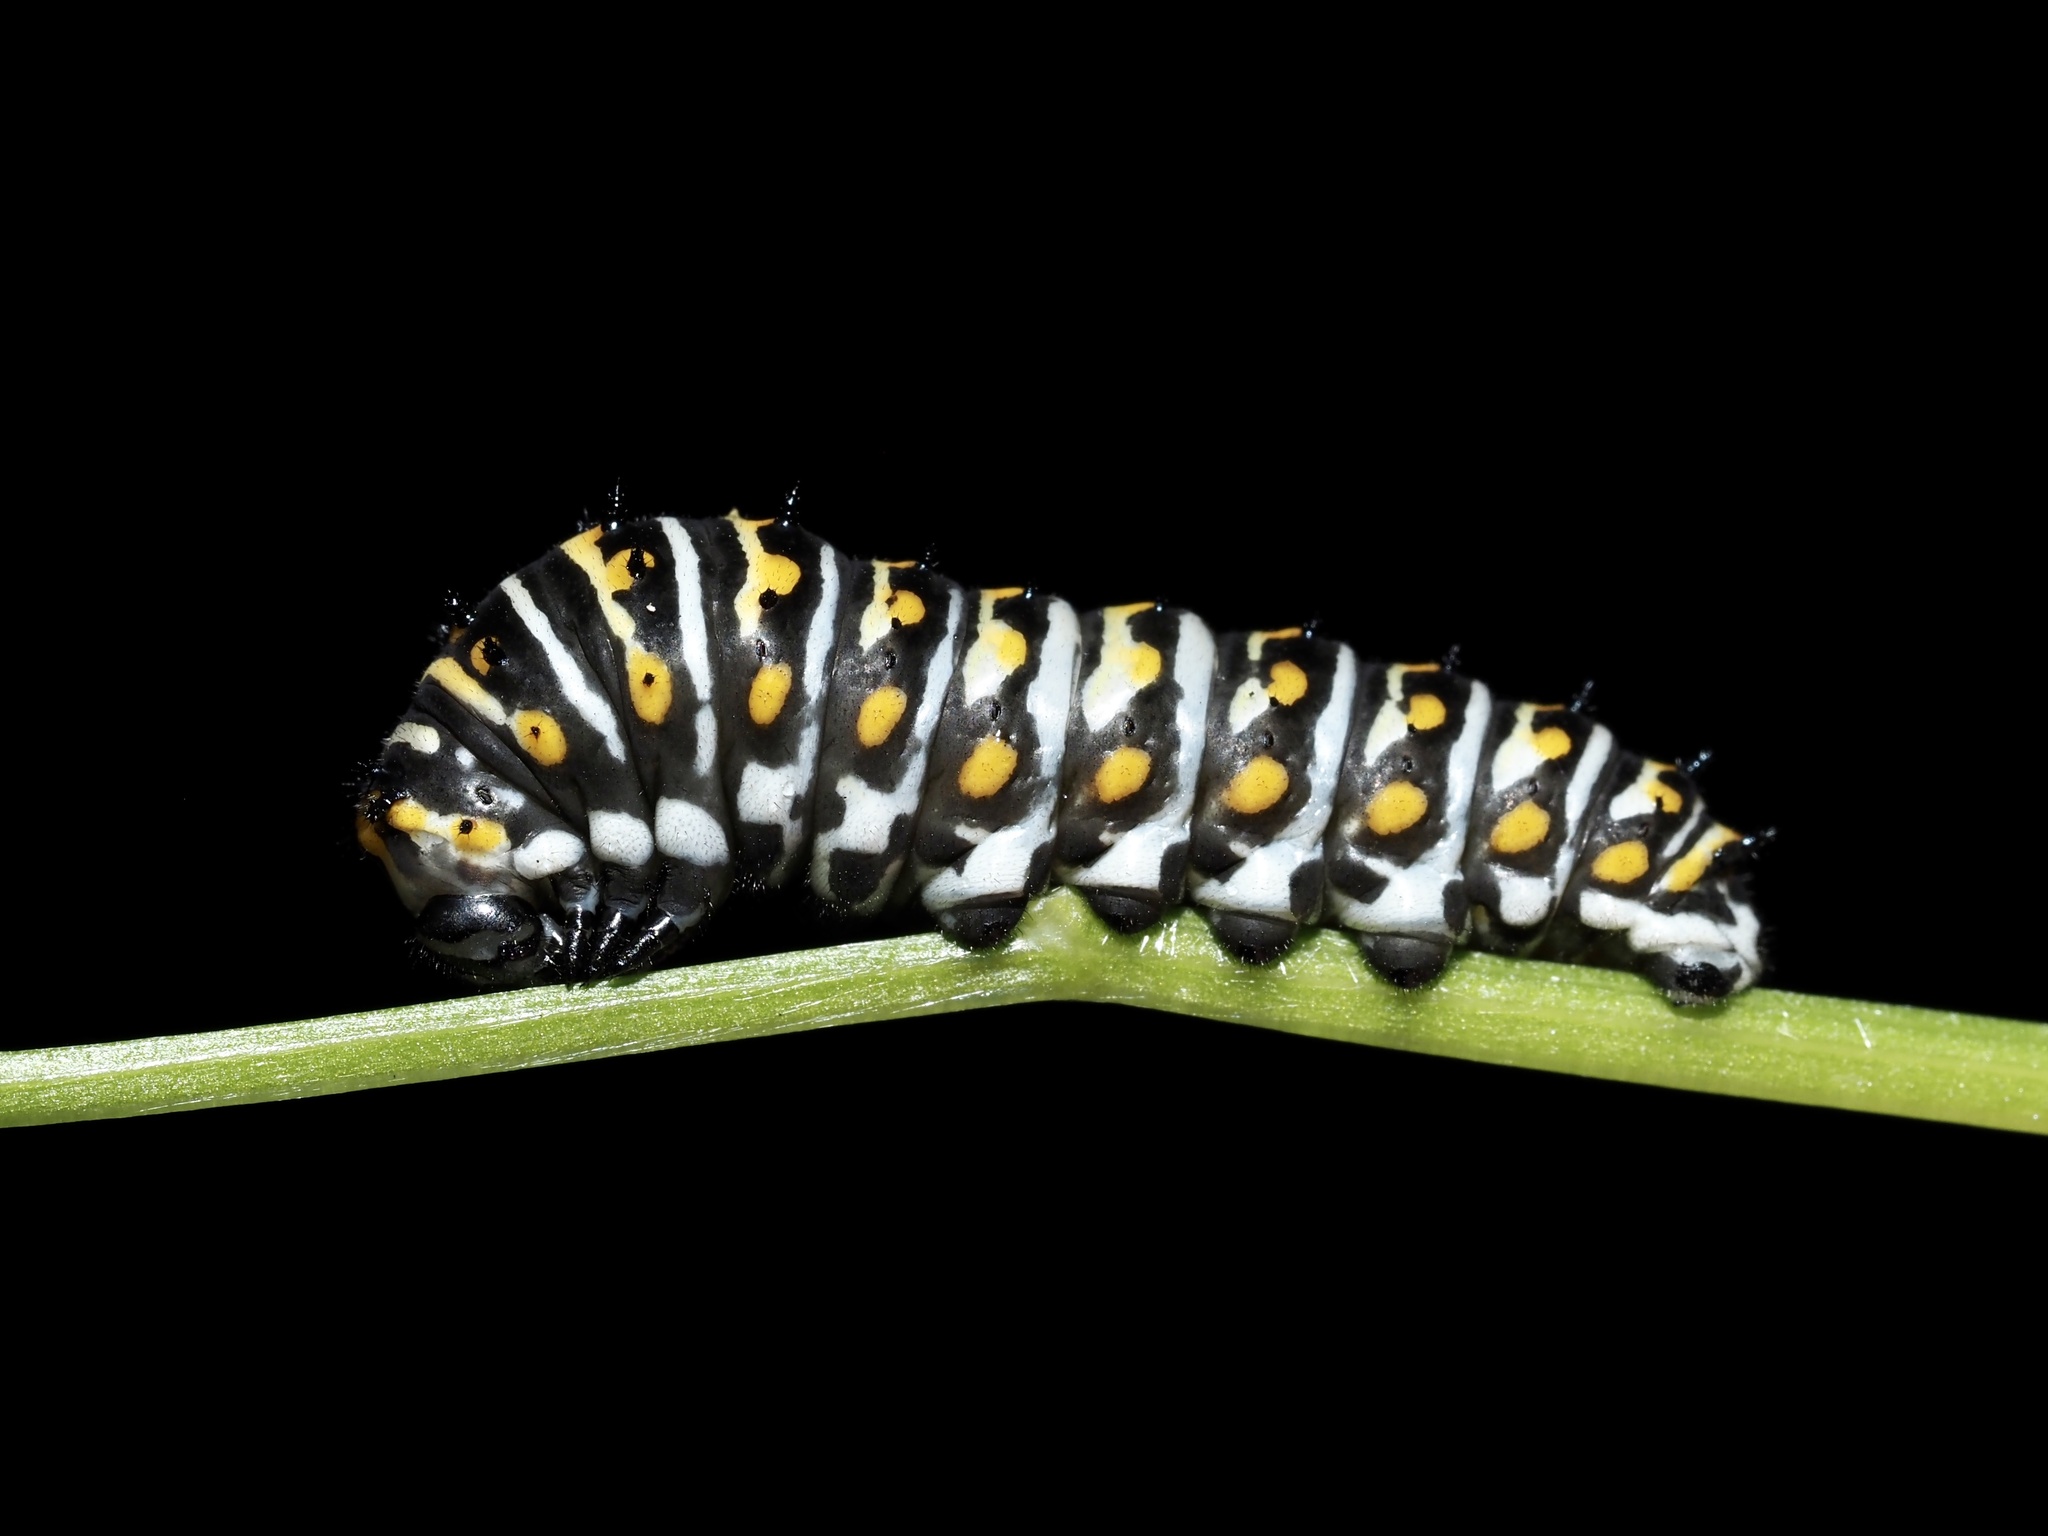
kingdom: Animalia
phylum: Arthropoda
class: Insecta
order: Lepidoptera
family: Papilionidae
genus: Papilio
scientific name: Papilio polyxenes
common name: Black swallowtail
